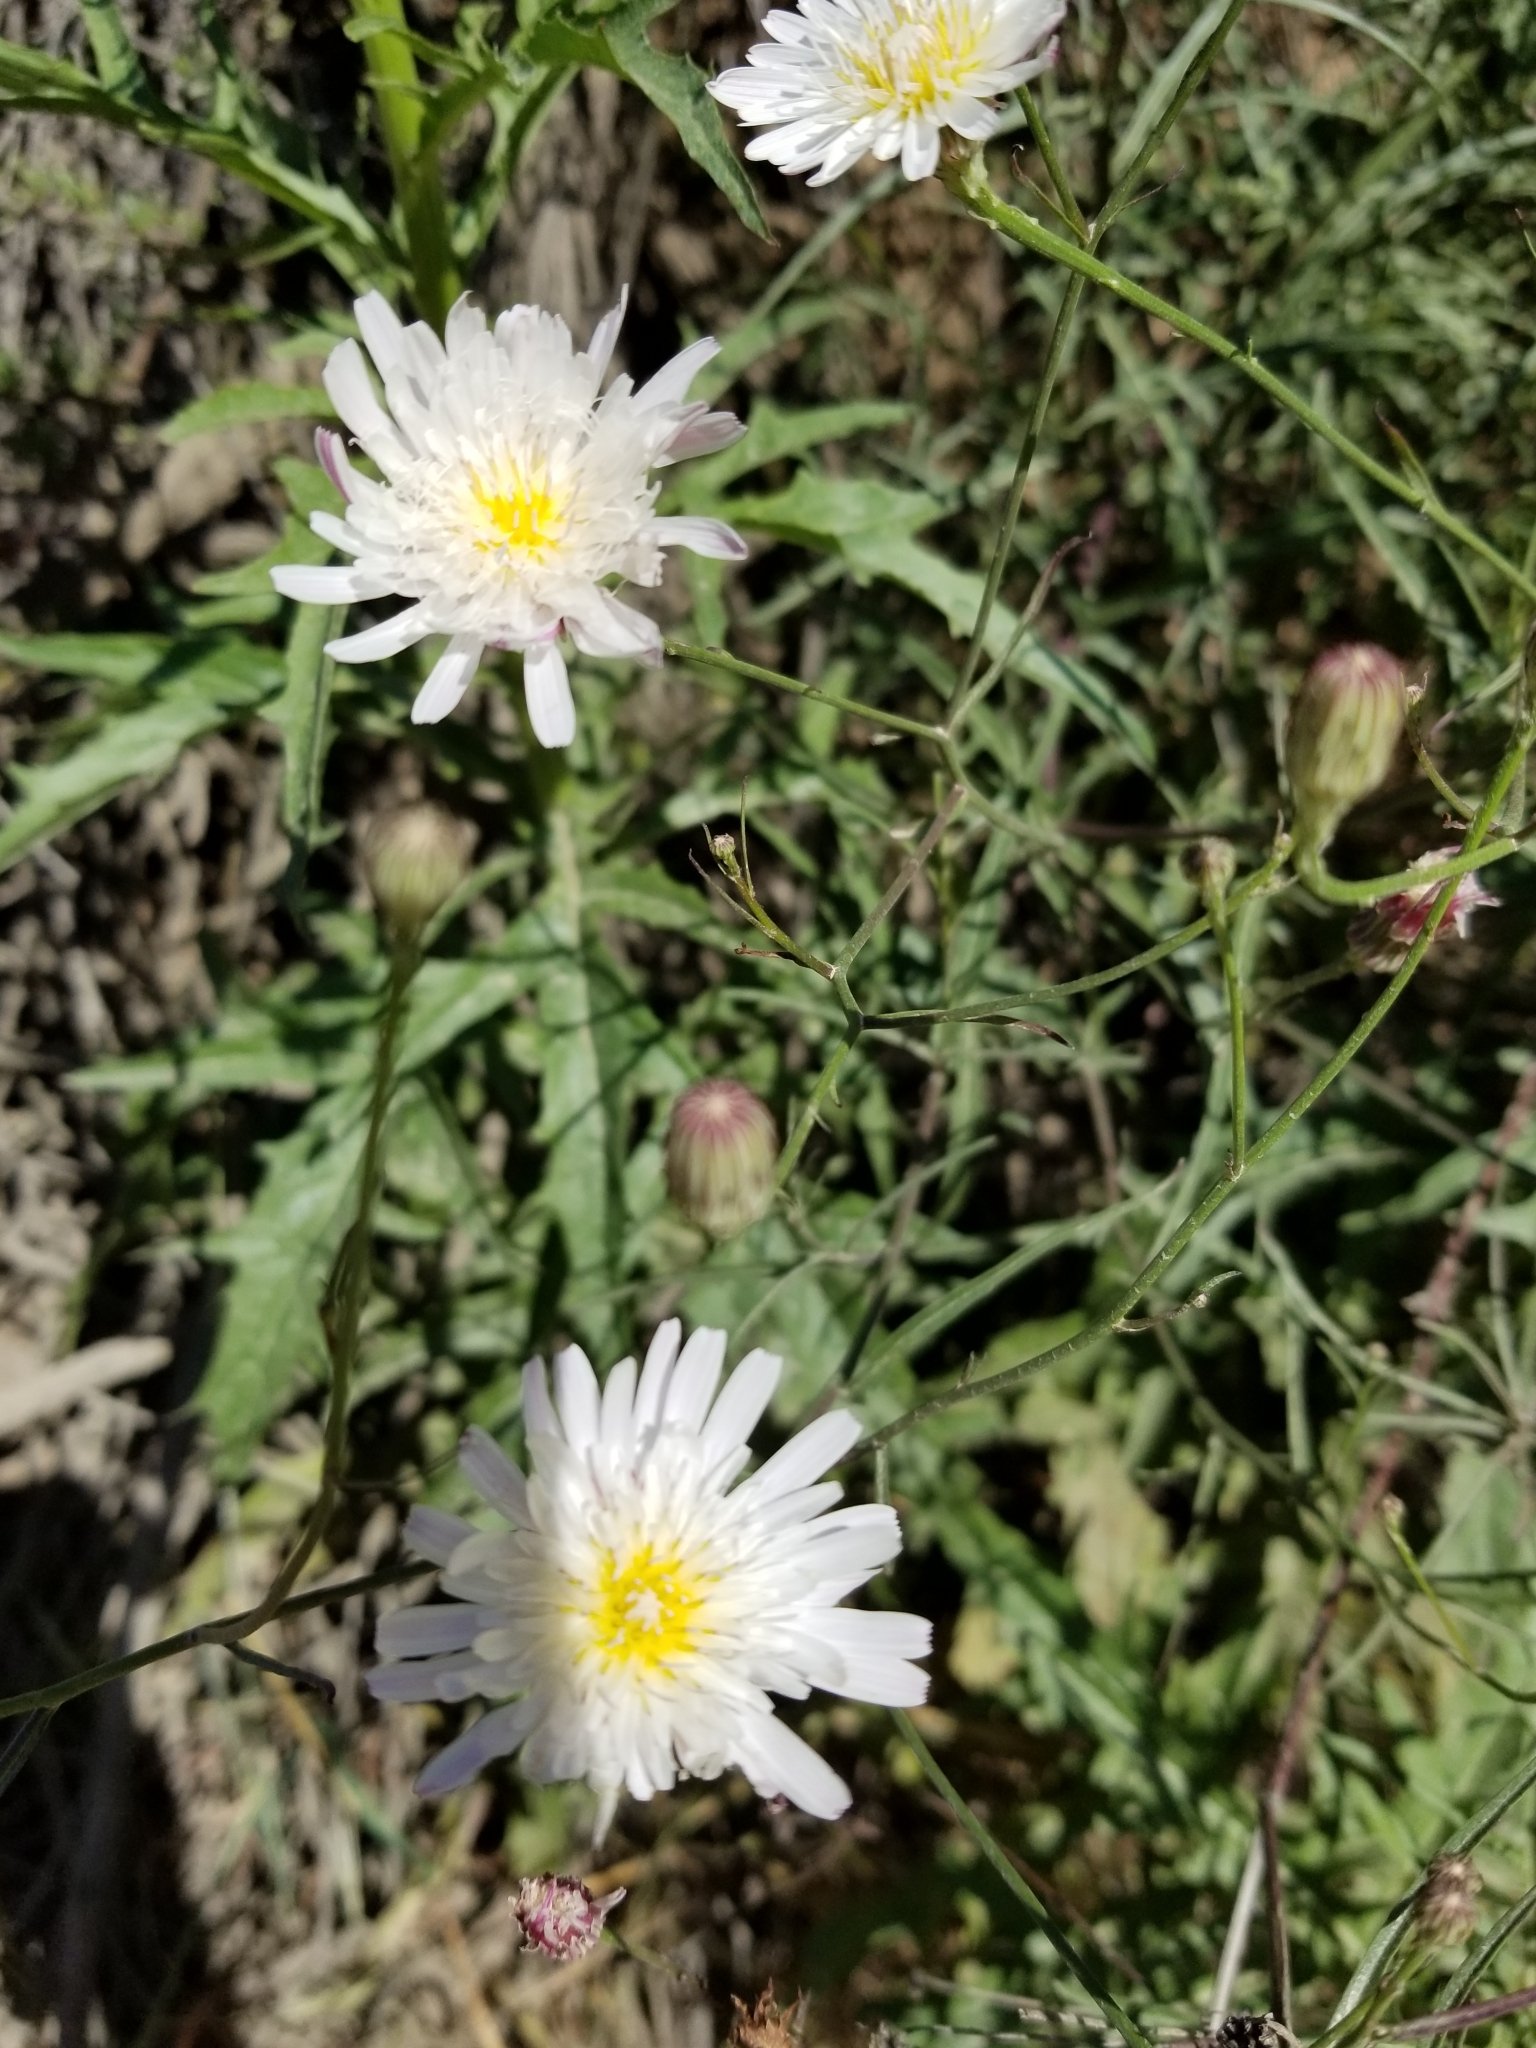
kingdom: Plantae
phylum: Tracheophyta
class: Magnoliopsida
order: Asterales
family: Asteraceae
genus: Malacothrix
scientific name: Malacothrix saxatilis
